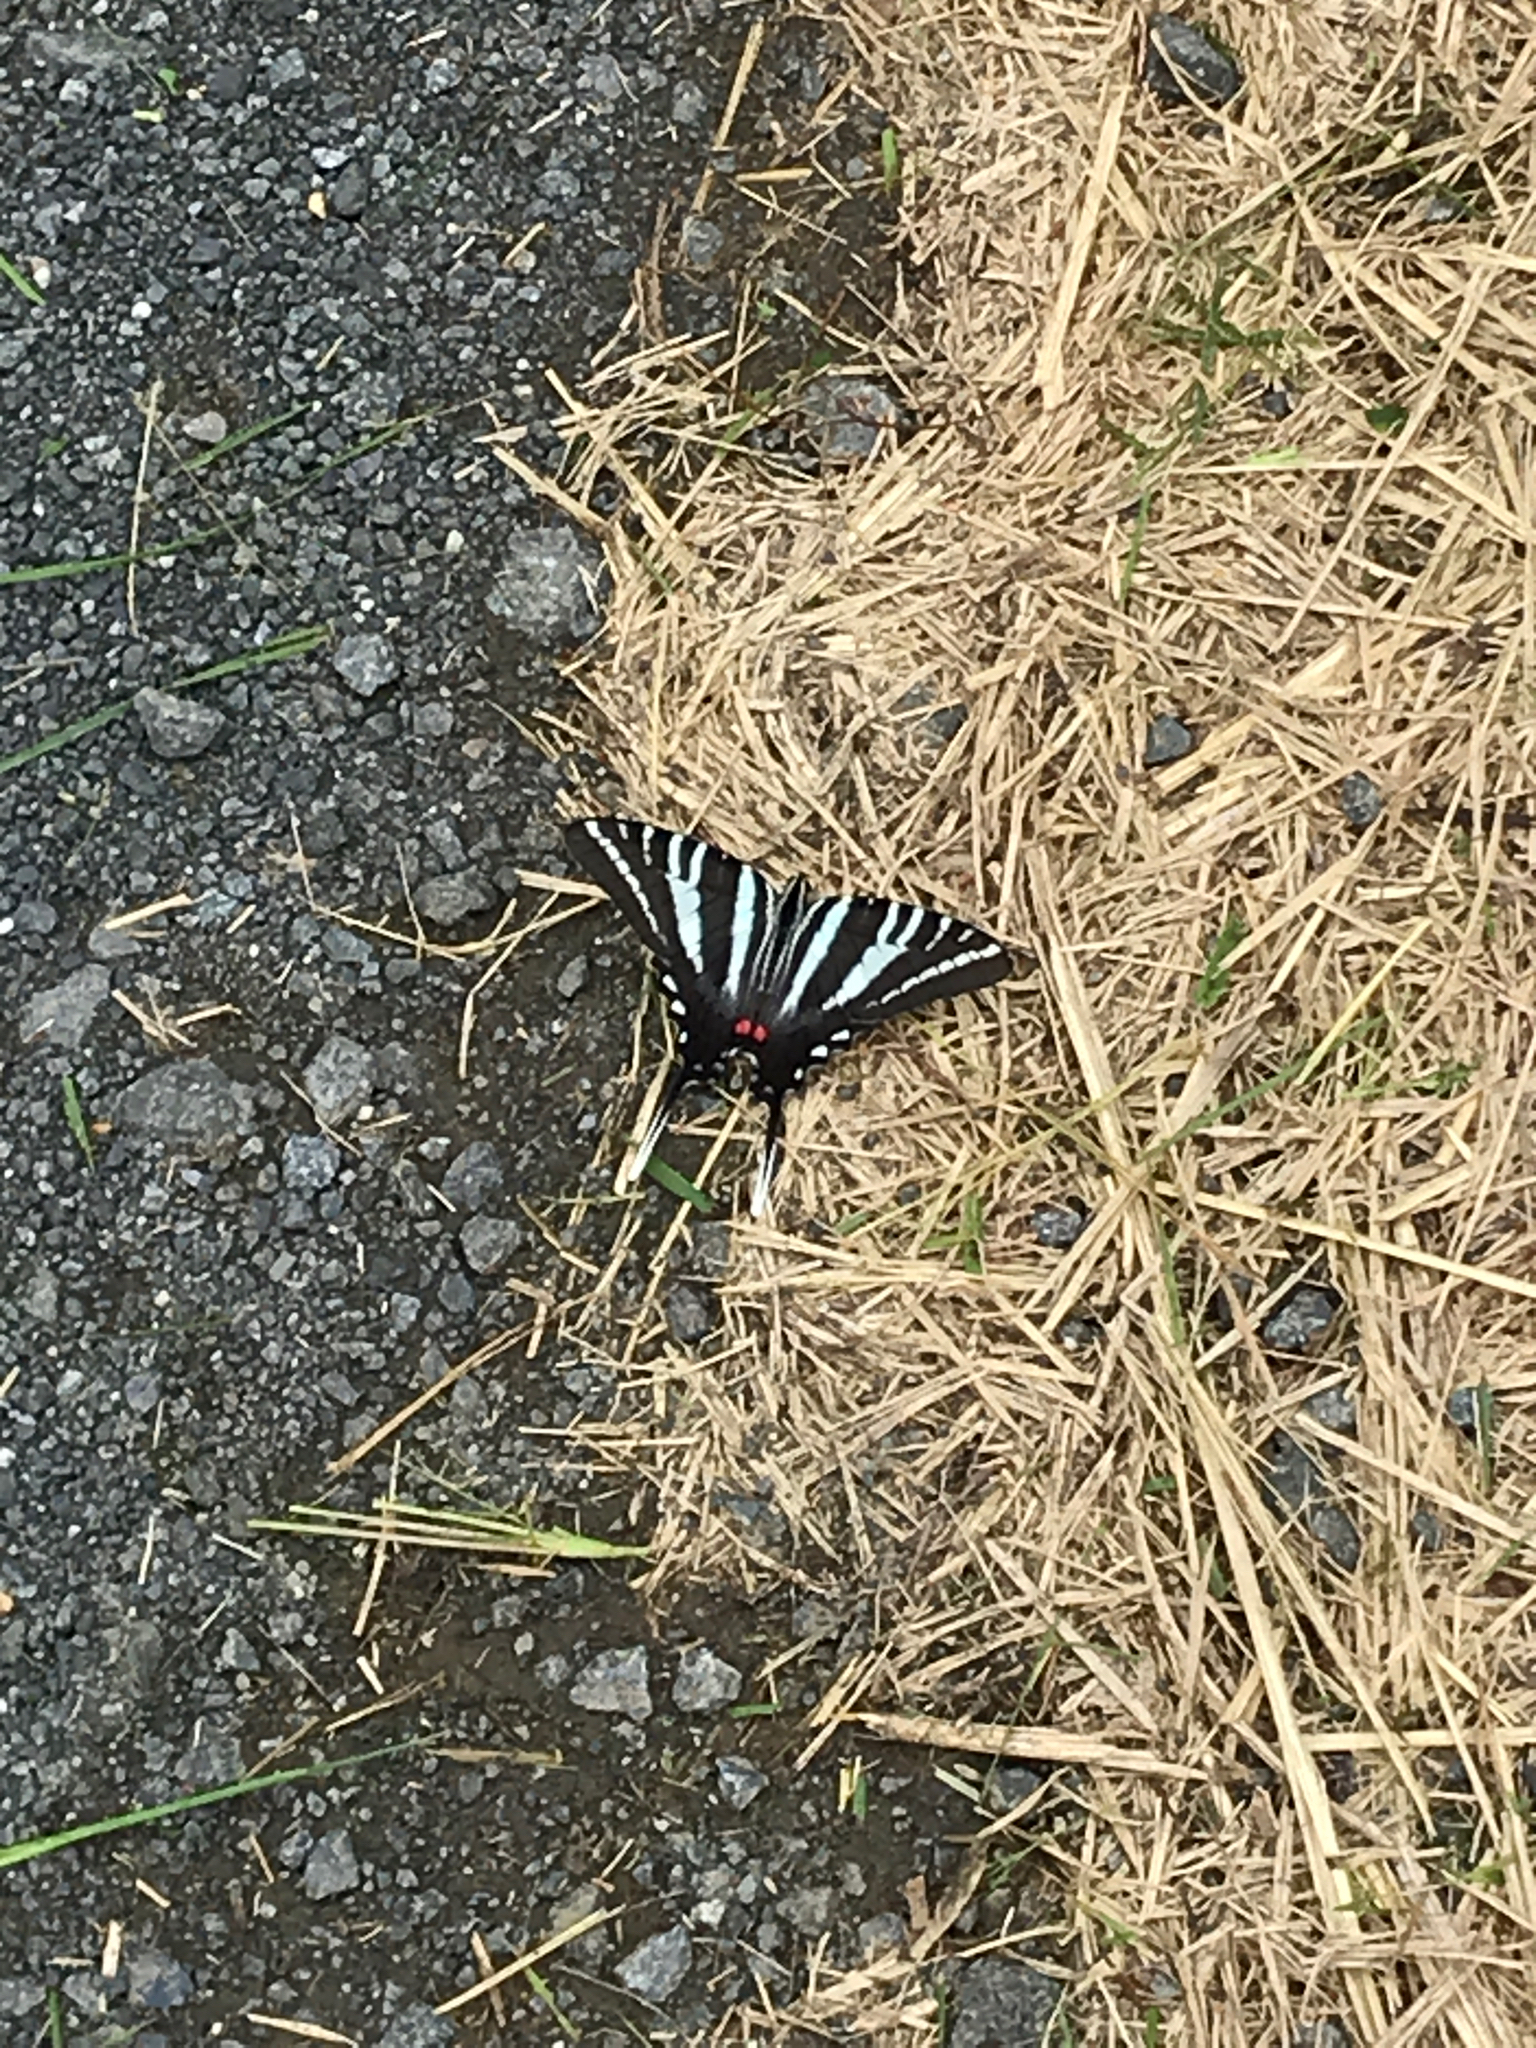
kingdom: Animalia
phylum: Arthropoda
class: Insecta
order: Lepidoptera
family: Papilionidae
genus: Protographium
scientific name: Protographium marcellus
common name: Zebra swallowtail
